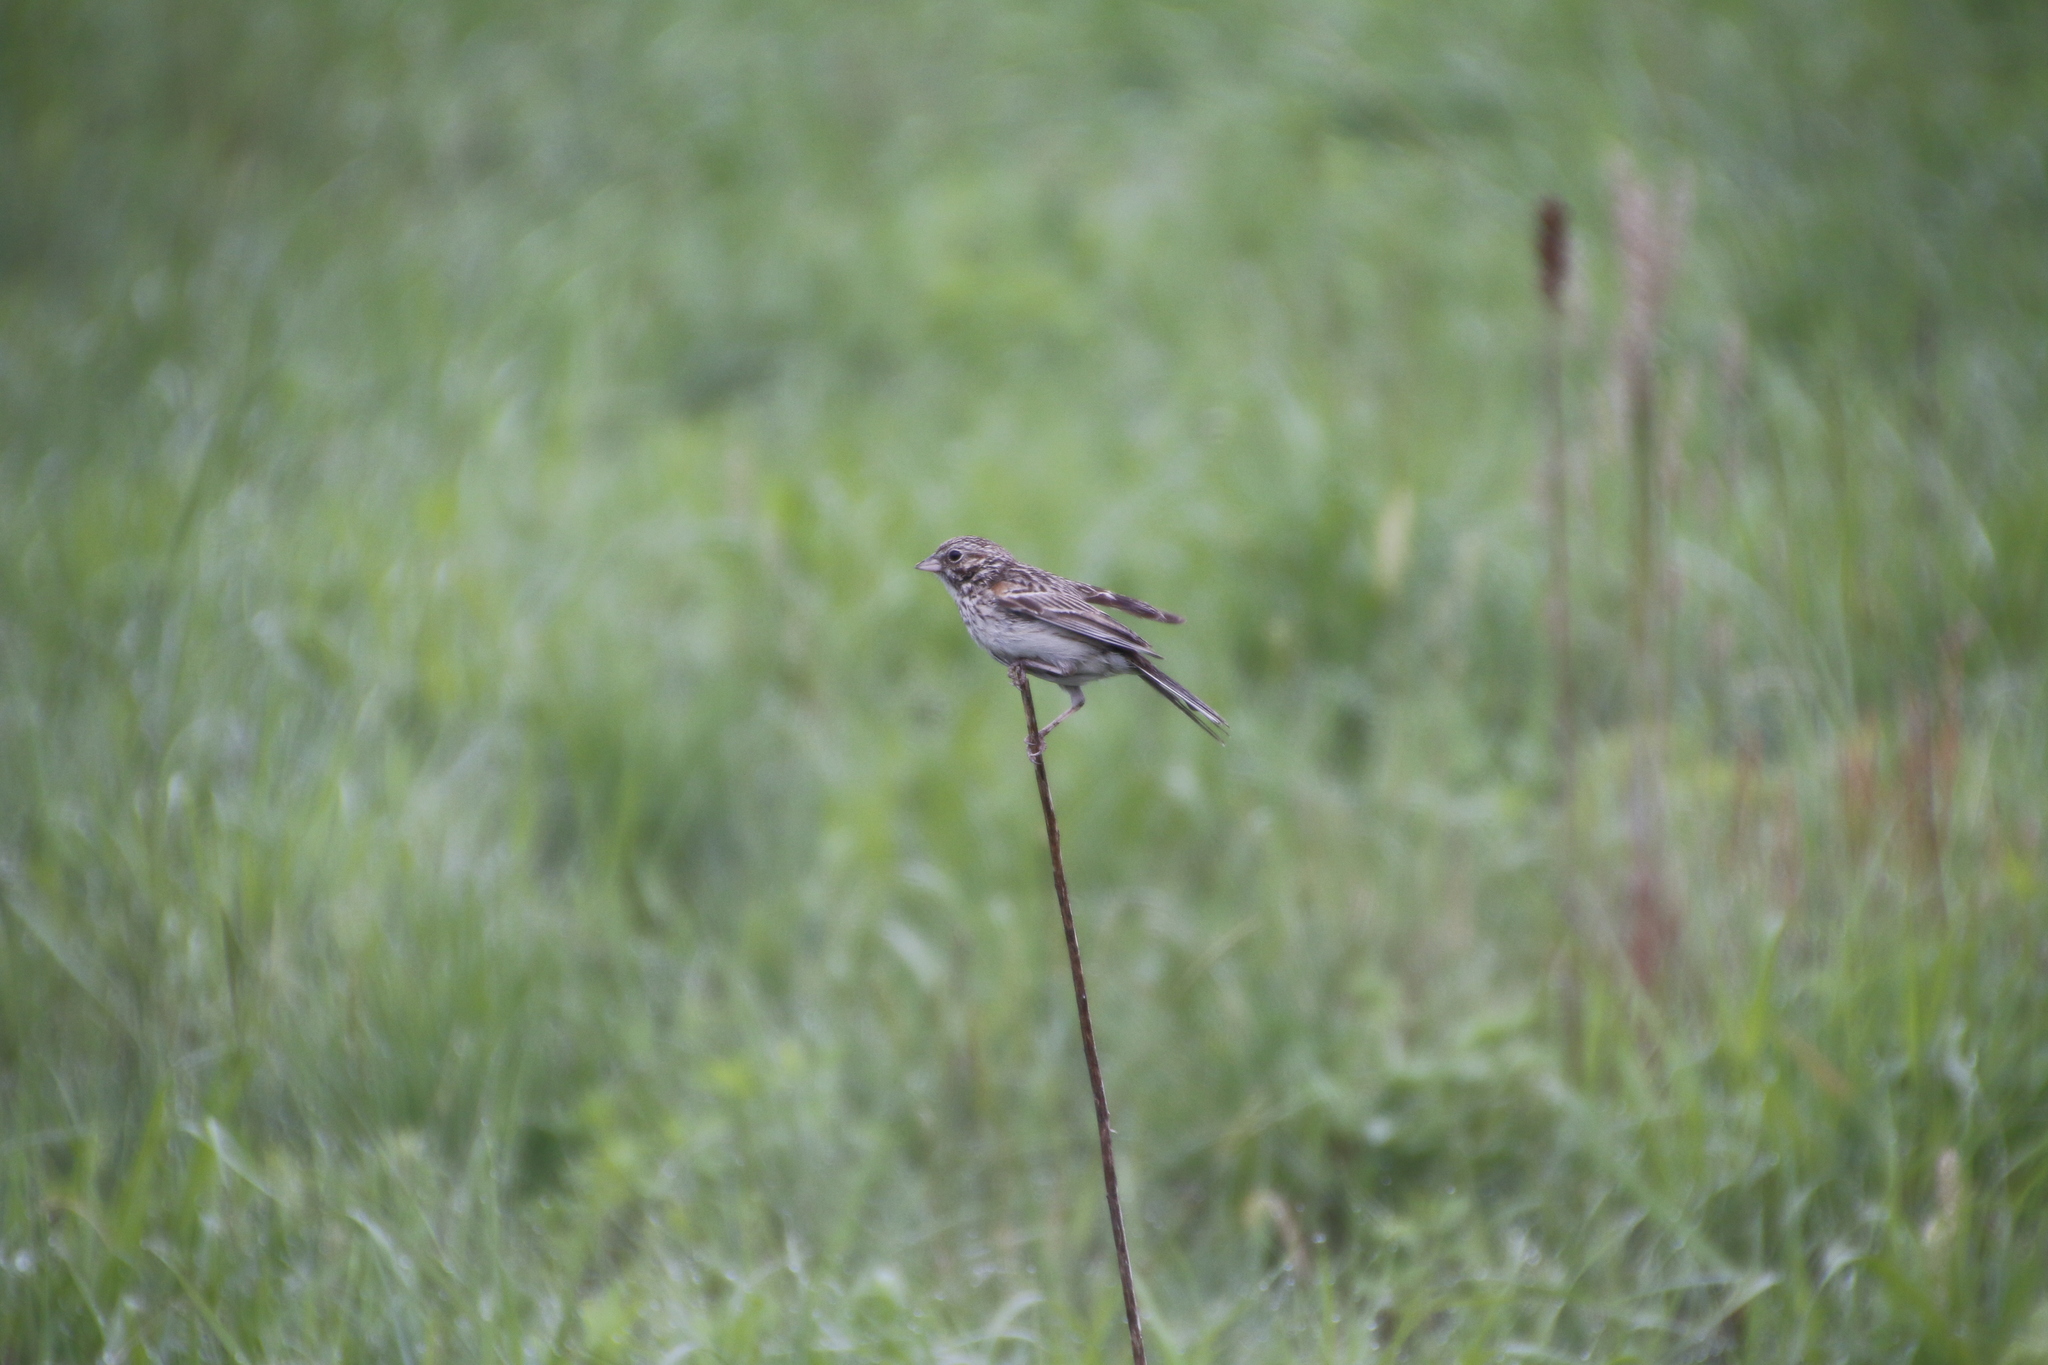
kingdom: Animalia
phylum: Chordata
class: Aves
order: Passeriformes
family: Passerellidae
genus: Pooecetes
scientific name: Pooecetes gramineus
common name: Vesper sparrow
